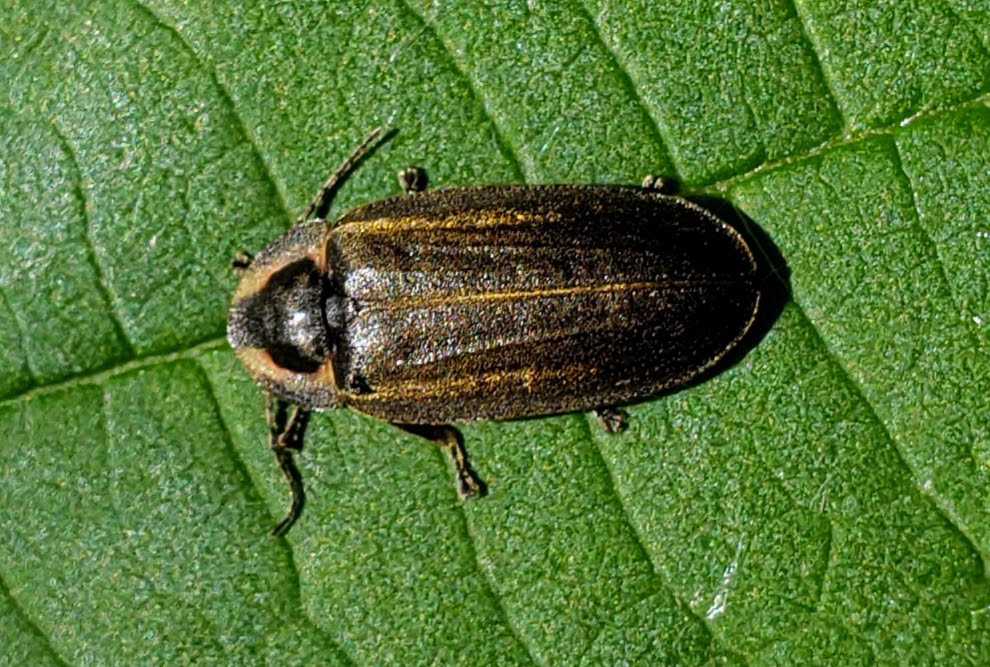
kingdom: Animalia
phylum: Arthropoda
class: Insecta
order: Coleoptera
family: Lampyridae
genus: Photinus
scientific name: Photinus corrusca
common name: Winter firefly
